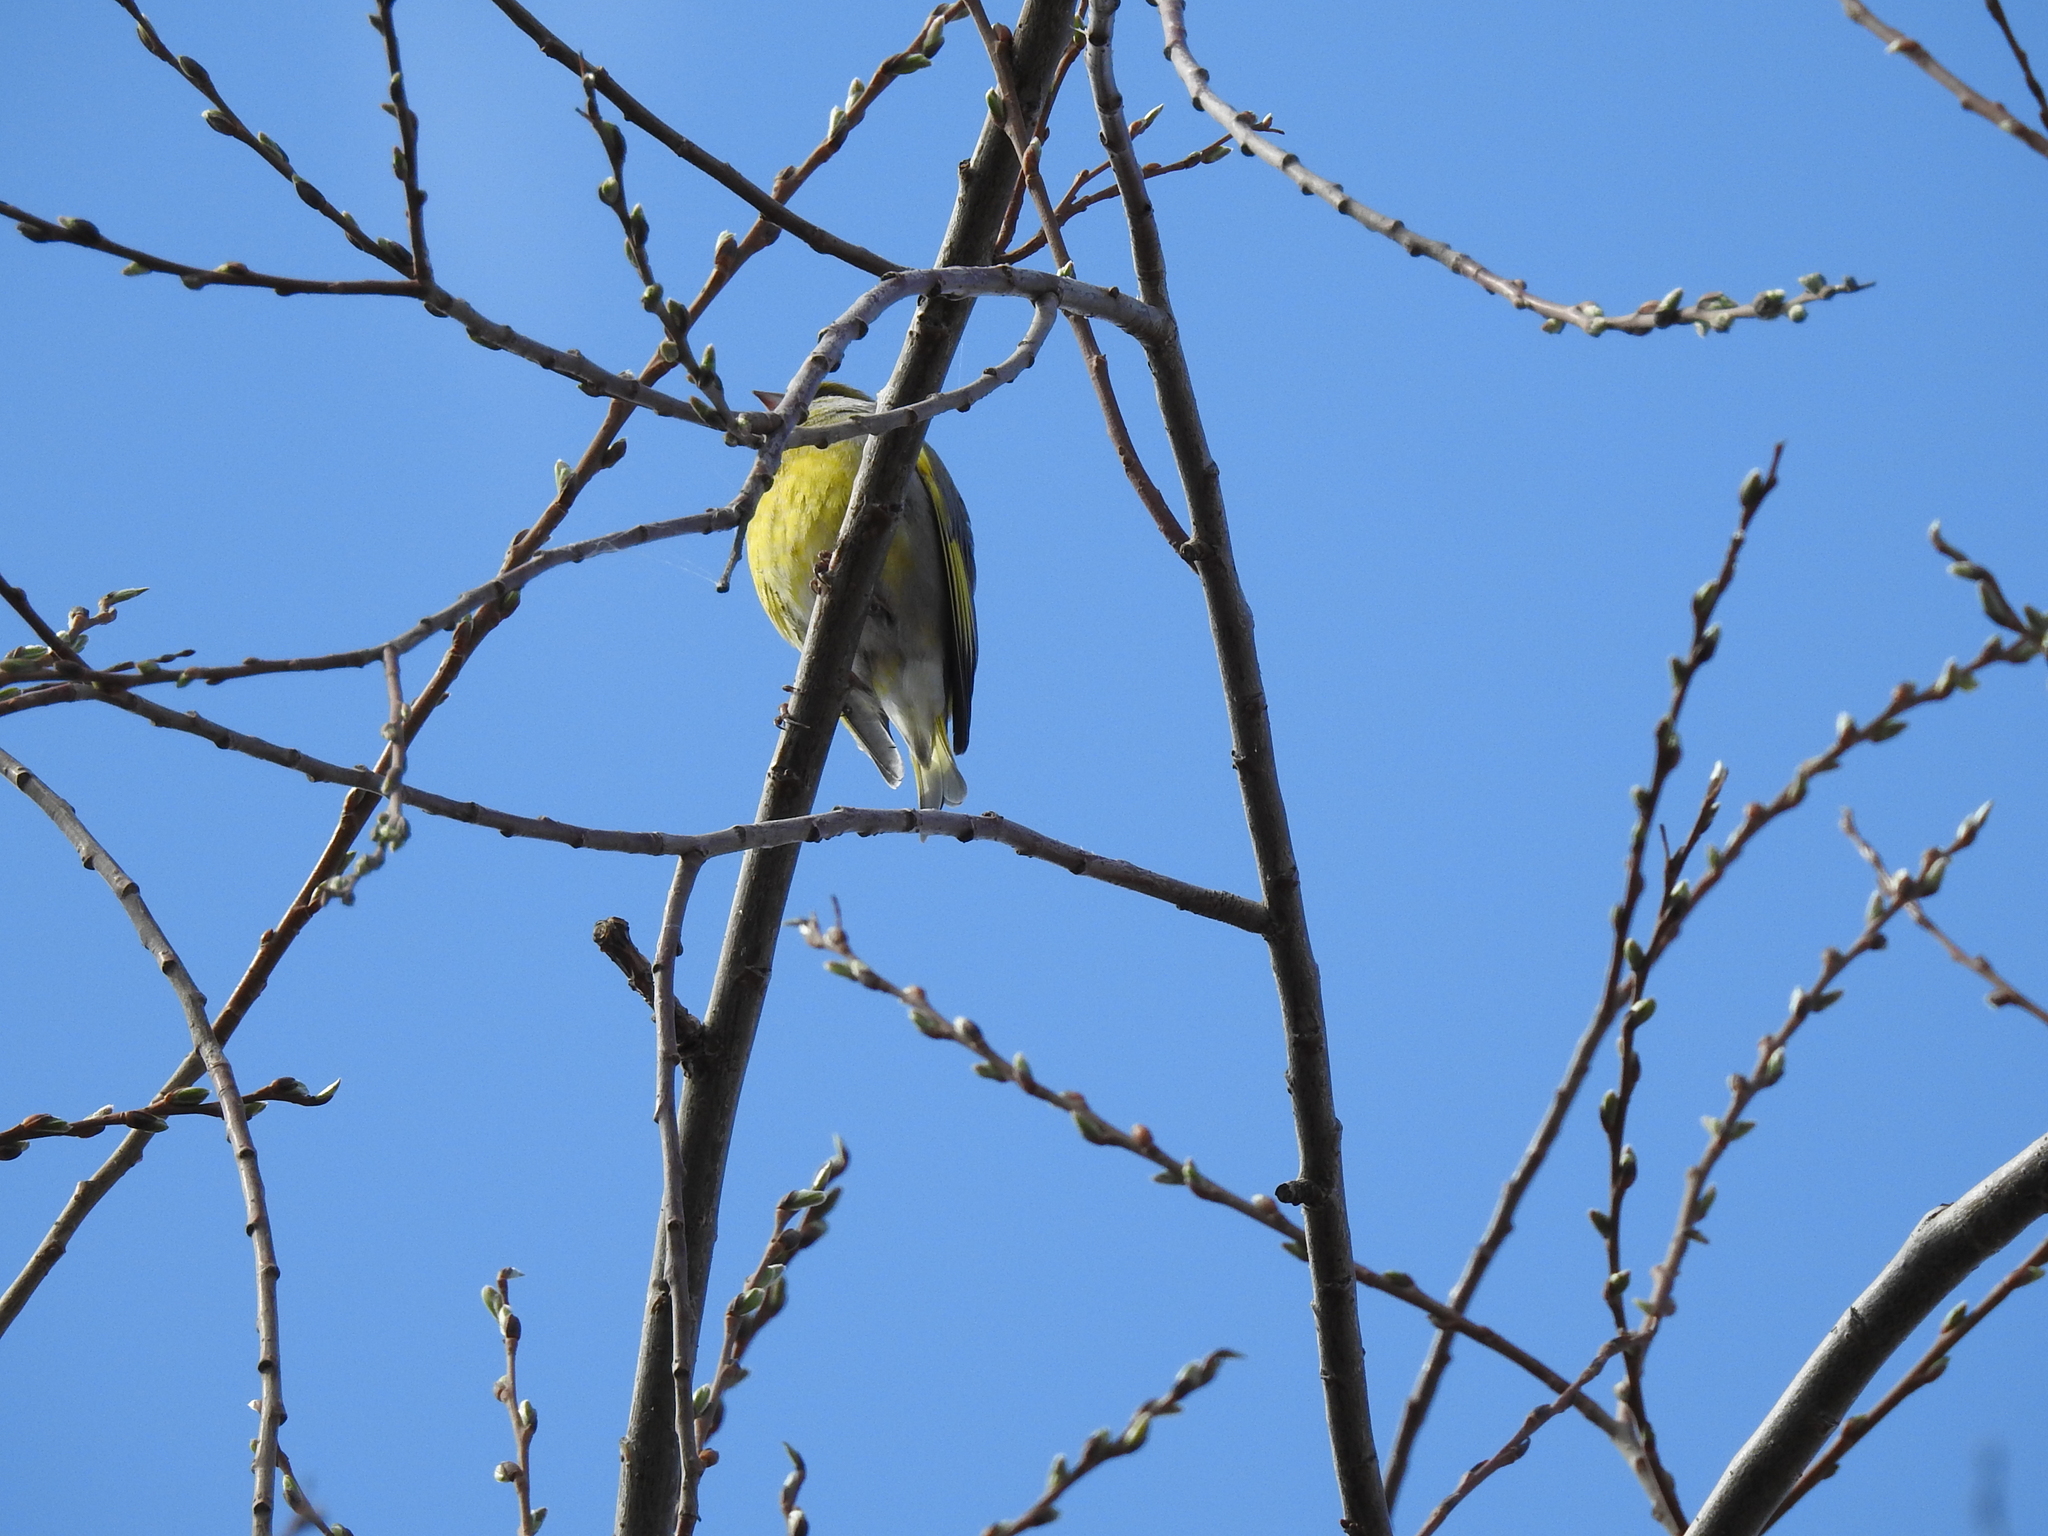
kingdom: Plantae
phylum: Tracheophyta
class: Liliopsida
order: Poales
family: Poaceae
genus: Chloris
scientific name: Chloris chloris
